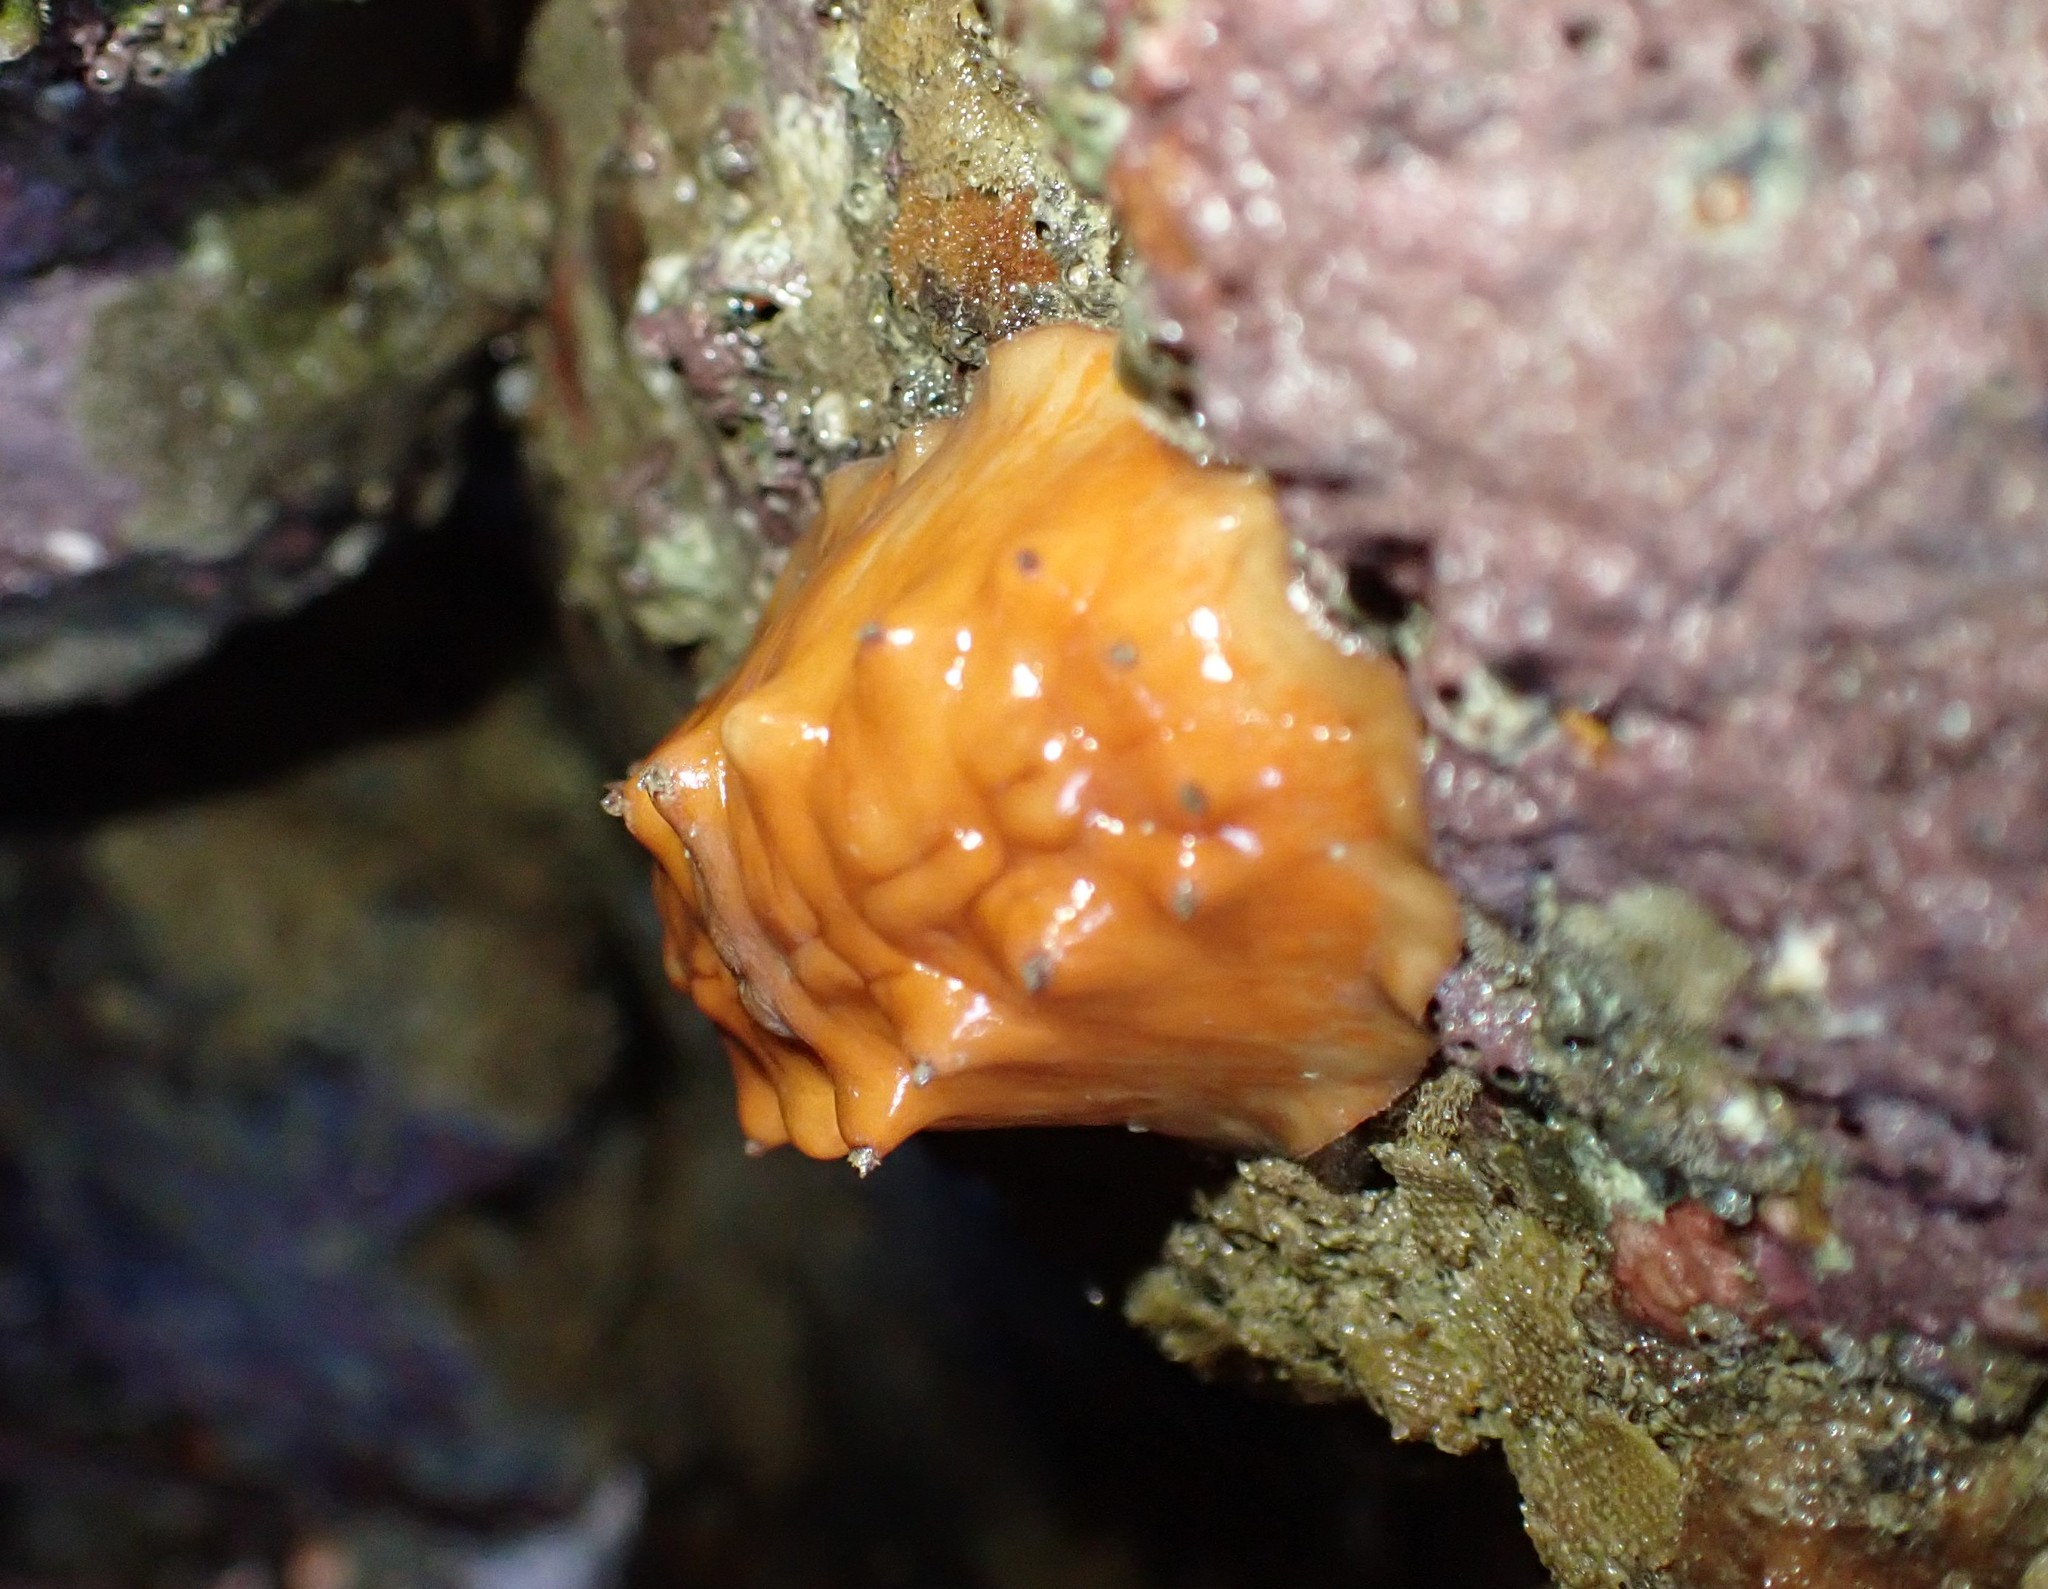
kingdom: Animalia
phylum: Mollusca
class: Polyplacophora
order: Chitonida
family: Acanthochitonidae
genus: Cryptoconchus
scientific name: Cryptoconchus porosus
